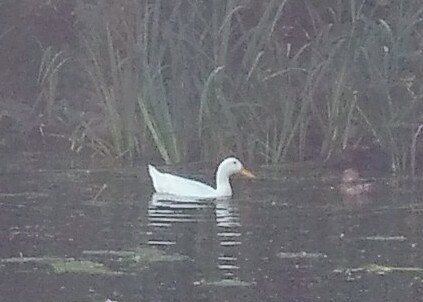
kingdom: Animalia
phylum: Chordata
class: Aves
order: Anseriformes
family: Anatidae
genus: Anas
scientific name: Anas platyrhynchos
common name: Mallard
